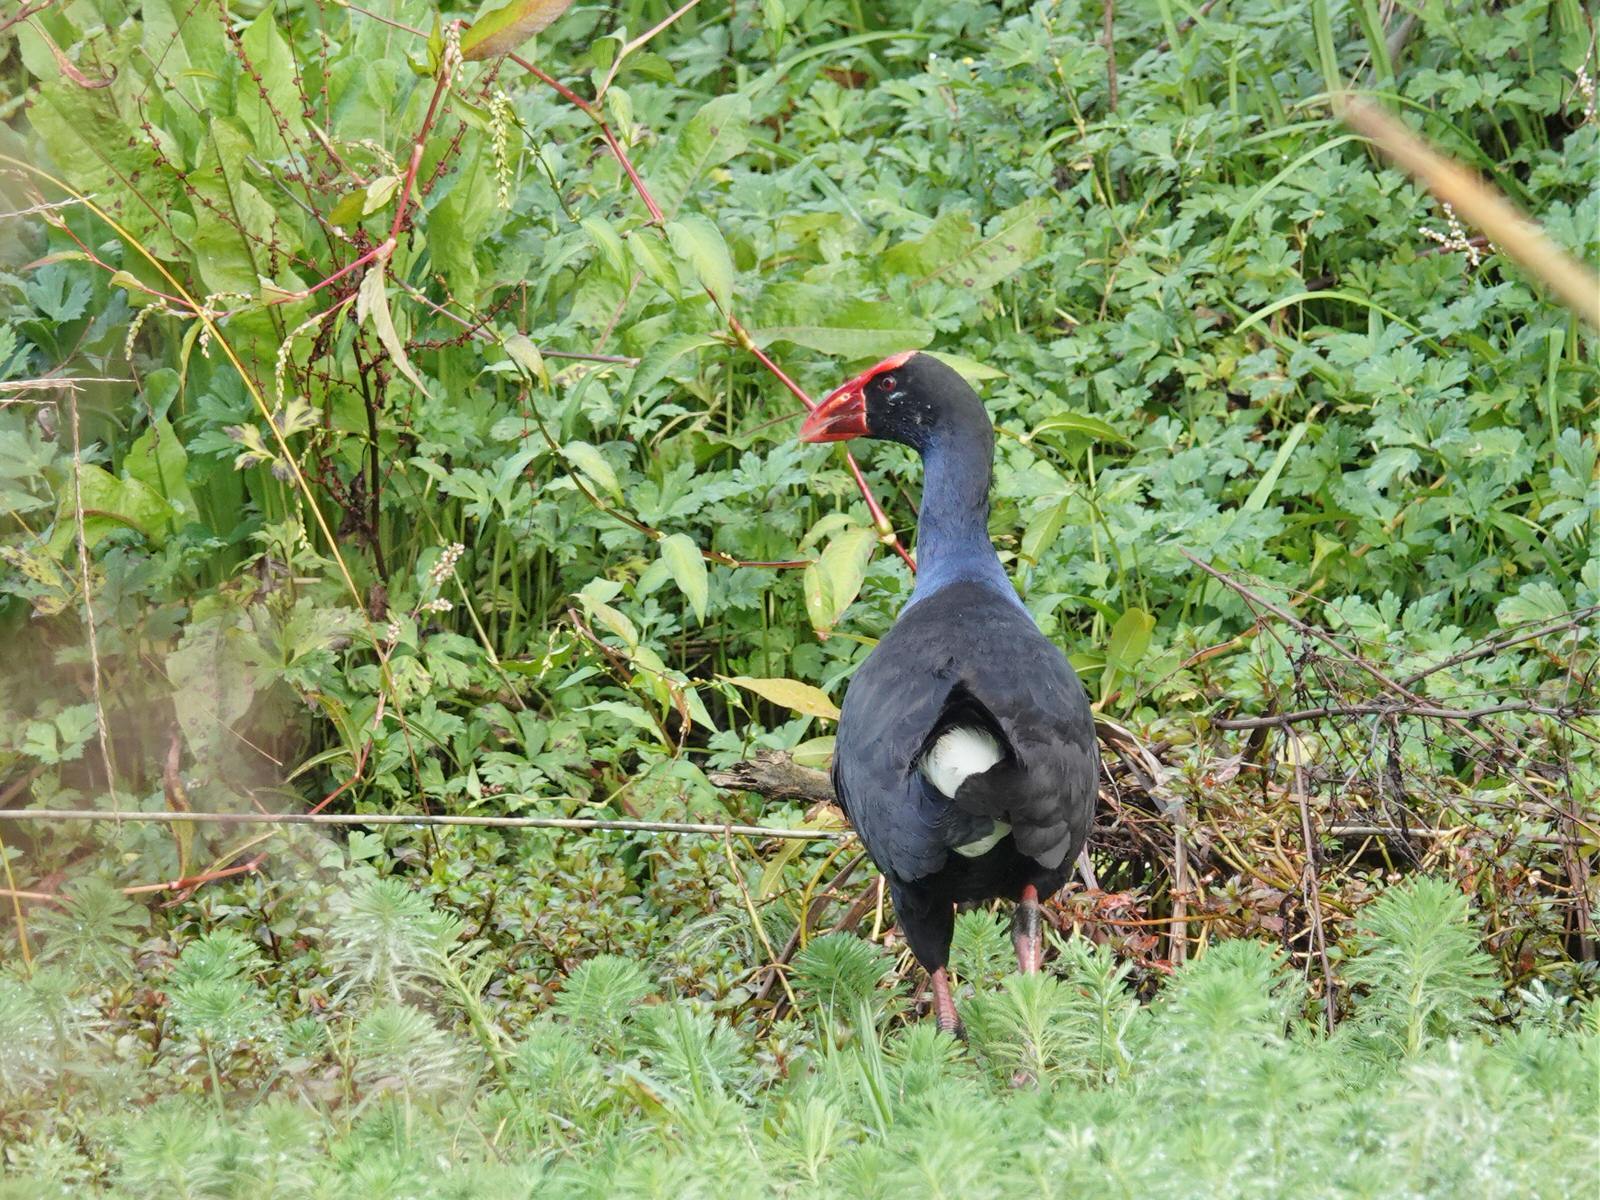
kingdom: Animalia
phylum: Chordata
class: Aves
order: Gruiformes
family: Rallidae
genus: Porphyrio
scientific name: Porphyrio melanotus
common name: Australasian swamphen
